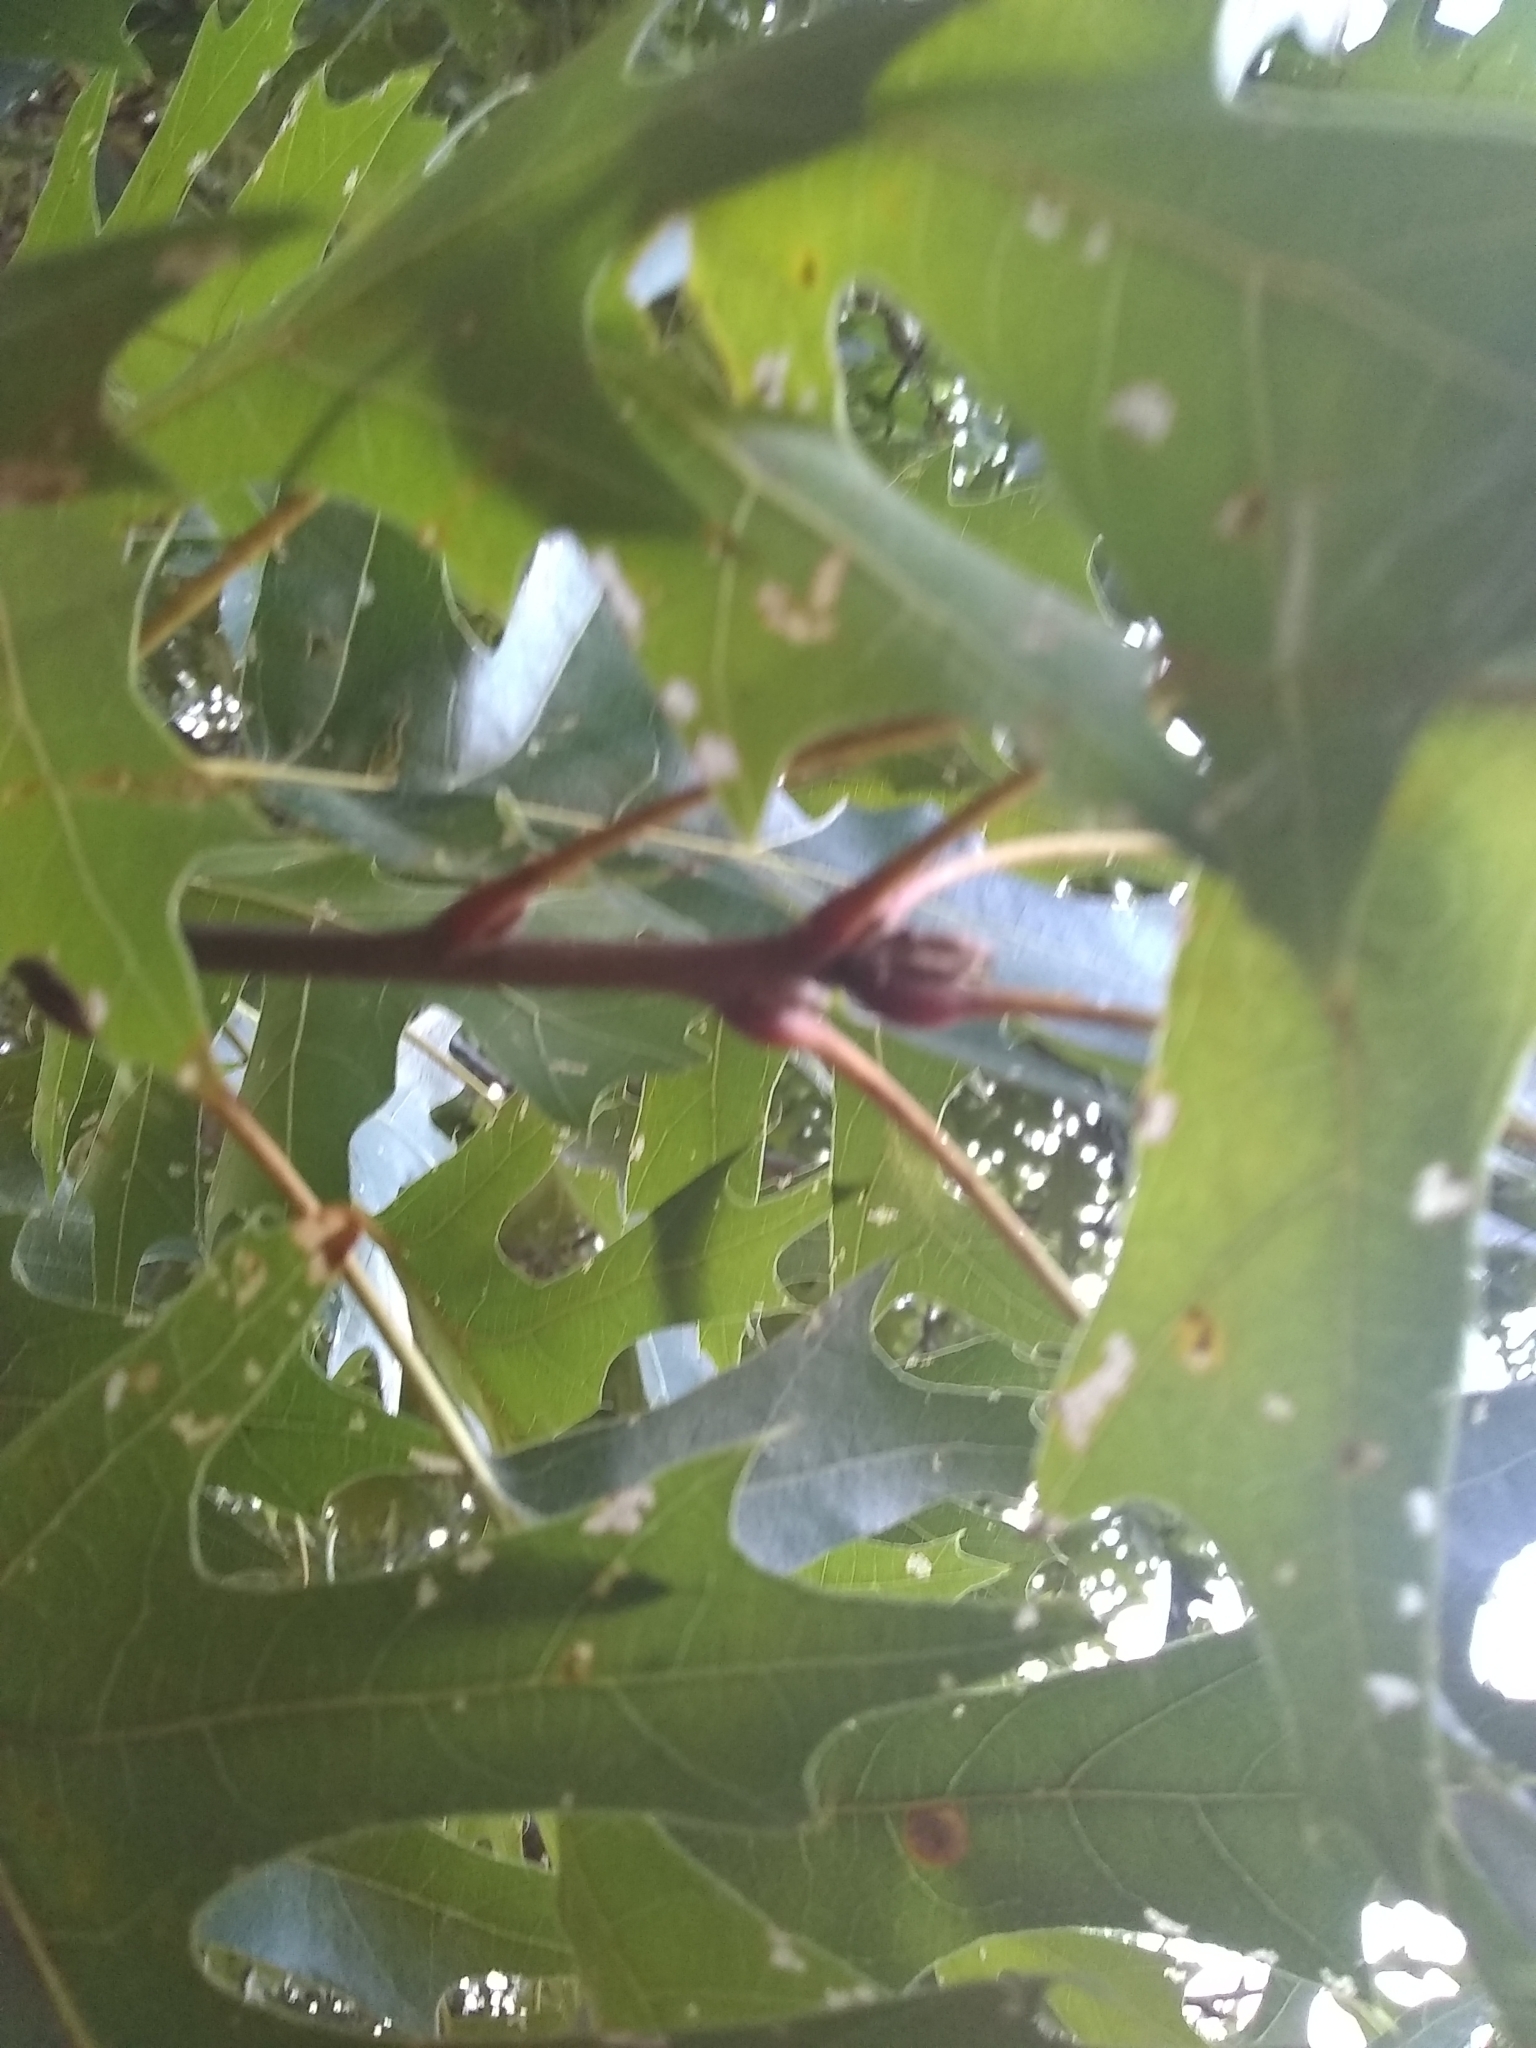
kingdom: Plantae
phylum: Tracheophyta
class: Magnoliopsida
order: Fagales
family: Fagaceae
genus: Quercus
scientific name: Quercus shumardii
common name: Shumard oak
